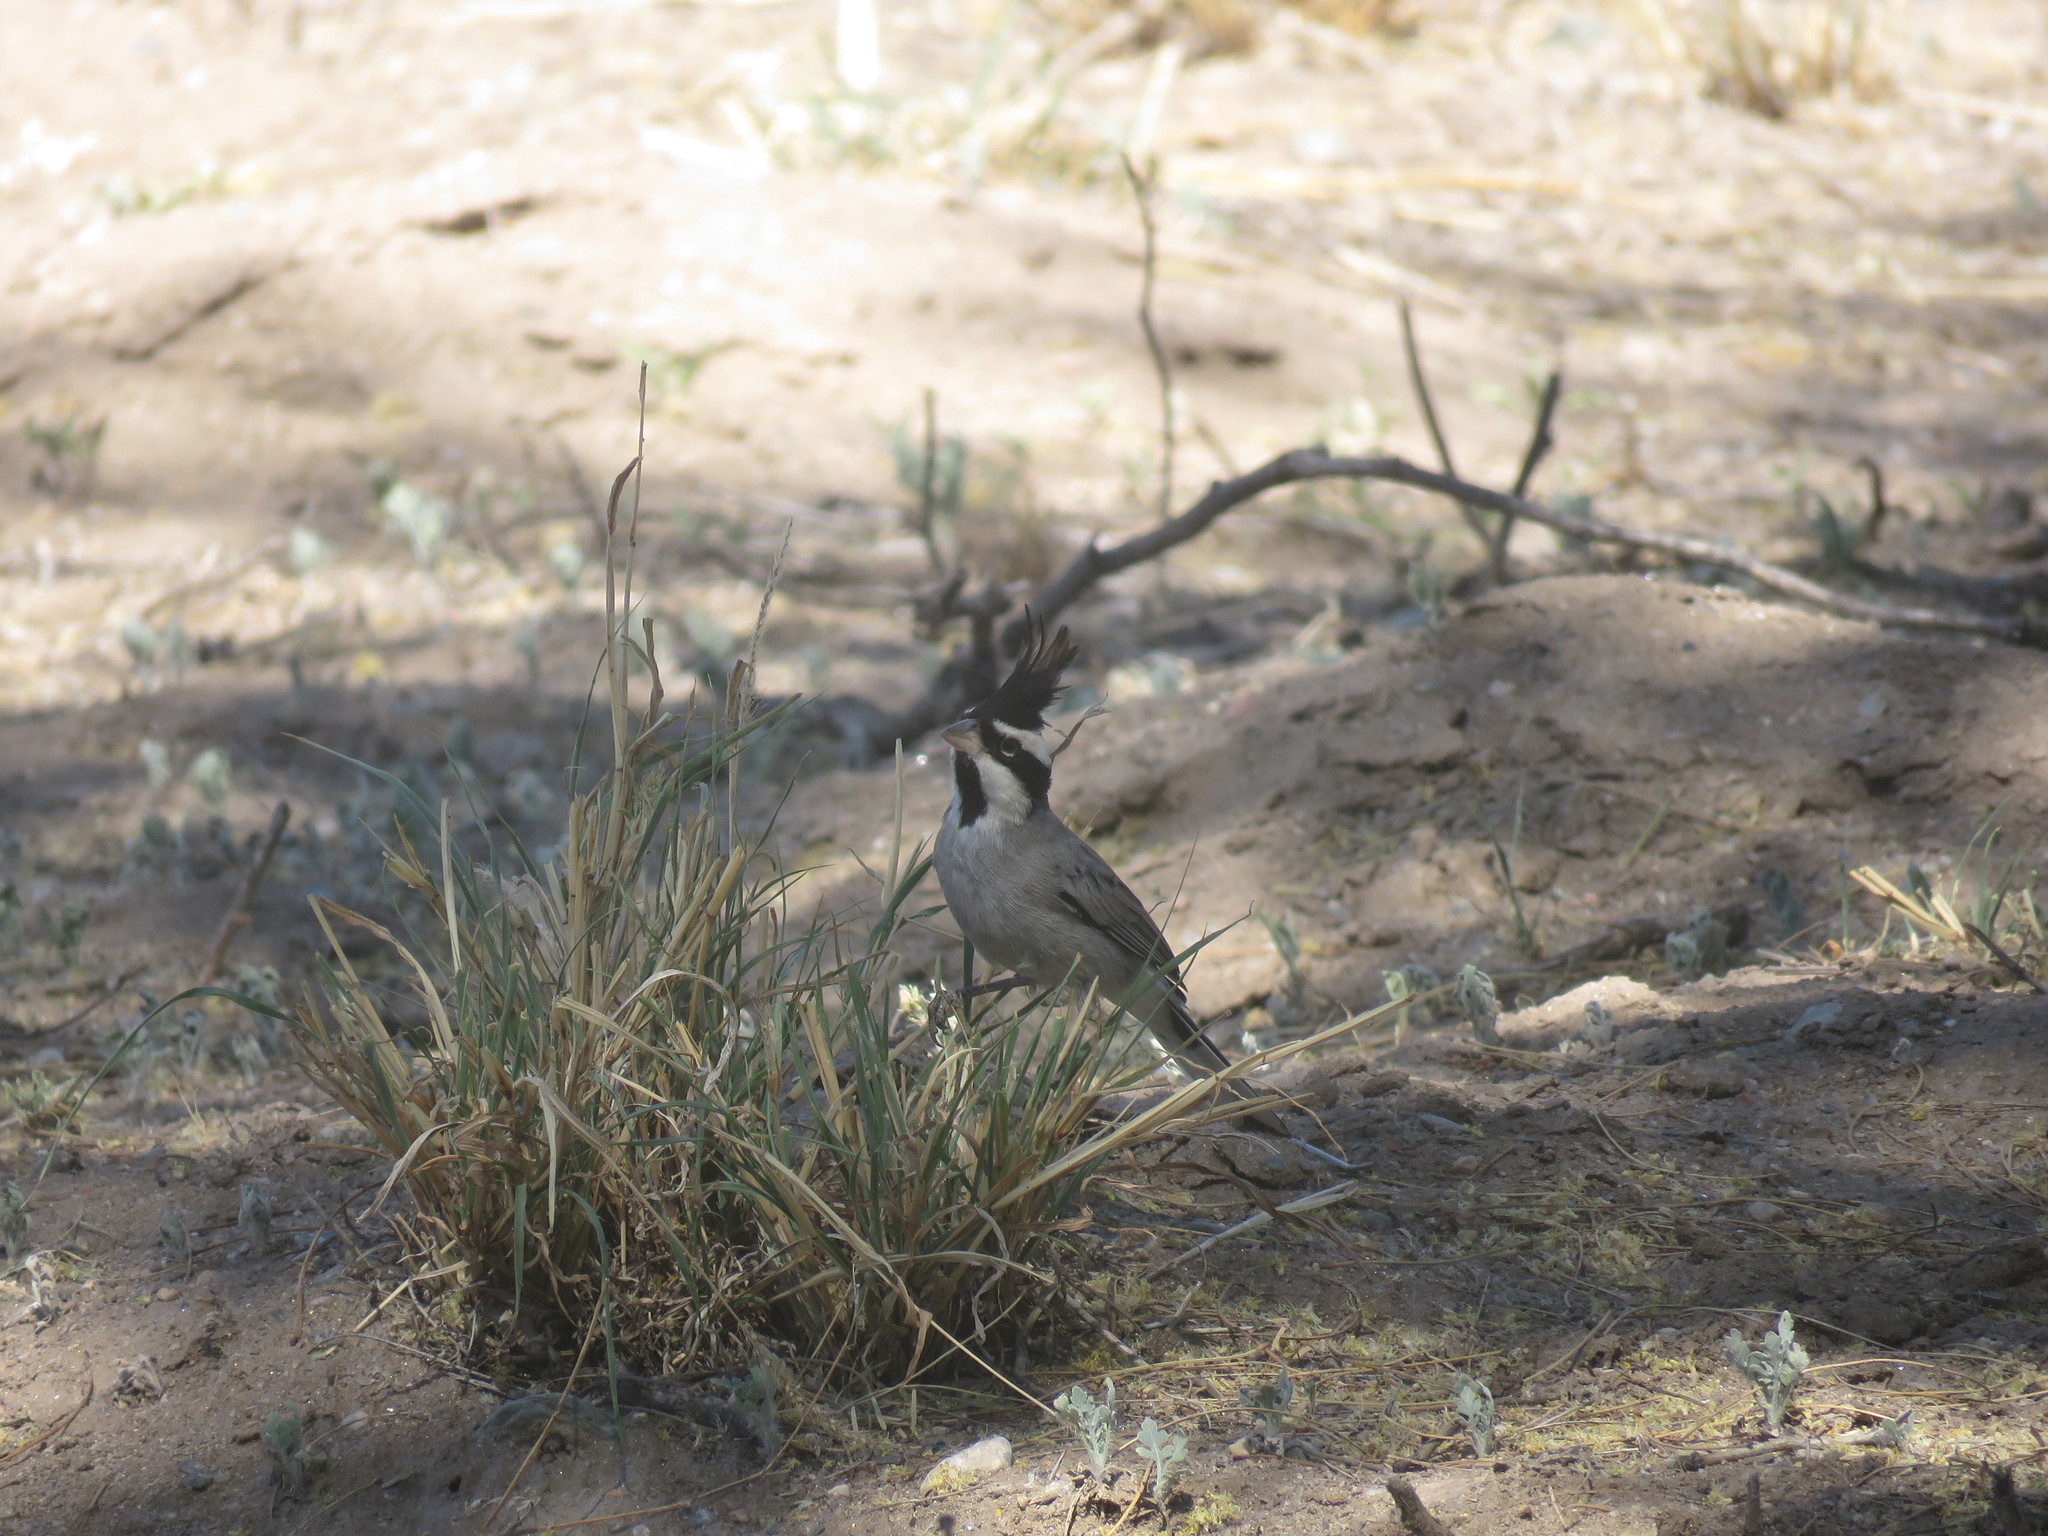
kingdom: Animalia
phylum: Chordata
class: Aves
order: Passeriformes
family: Thraupidae
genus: Lophospingus
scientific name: Lophospingus pusillus
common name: Black-crested finch
